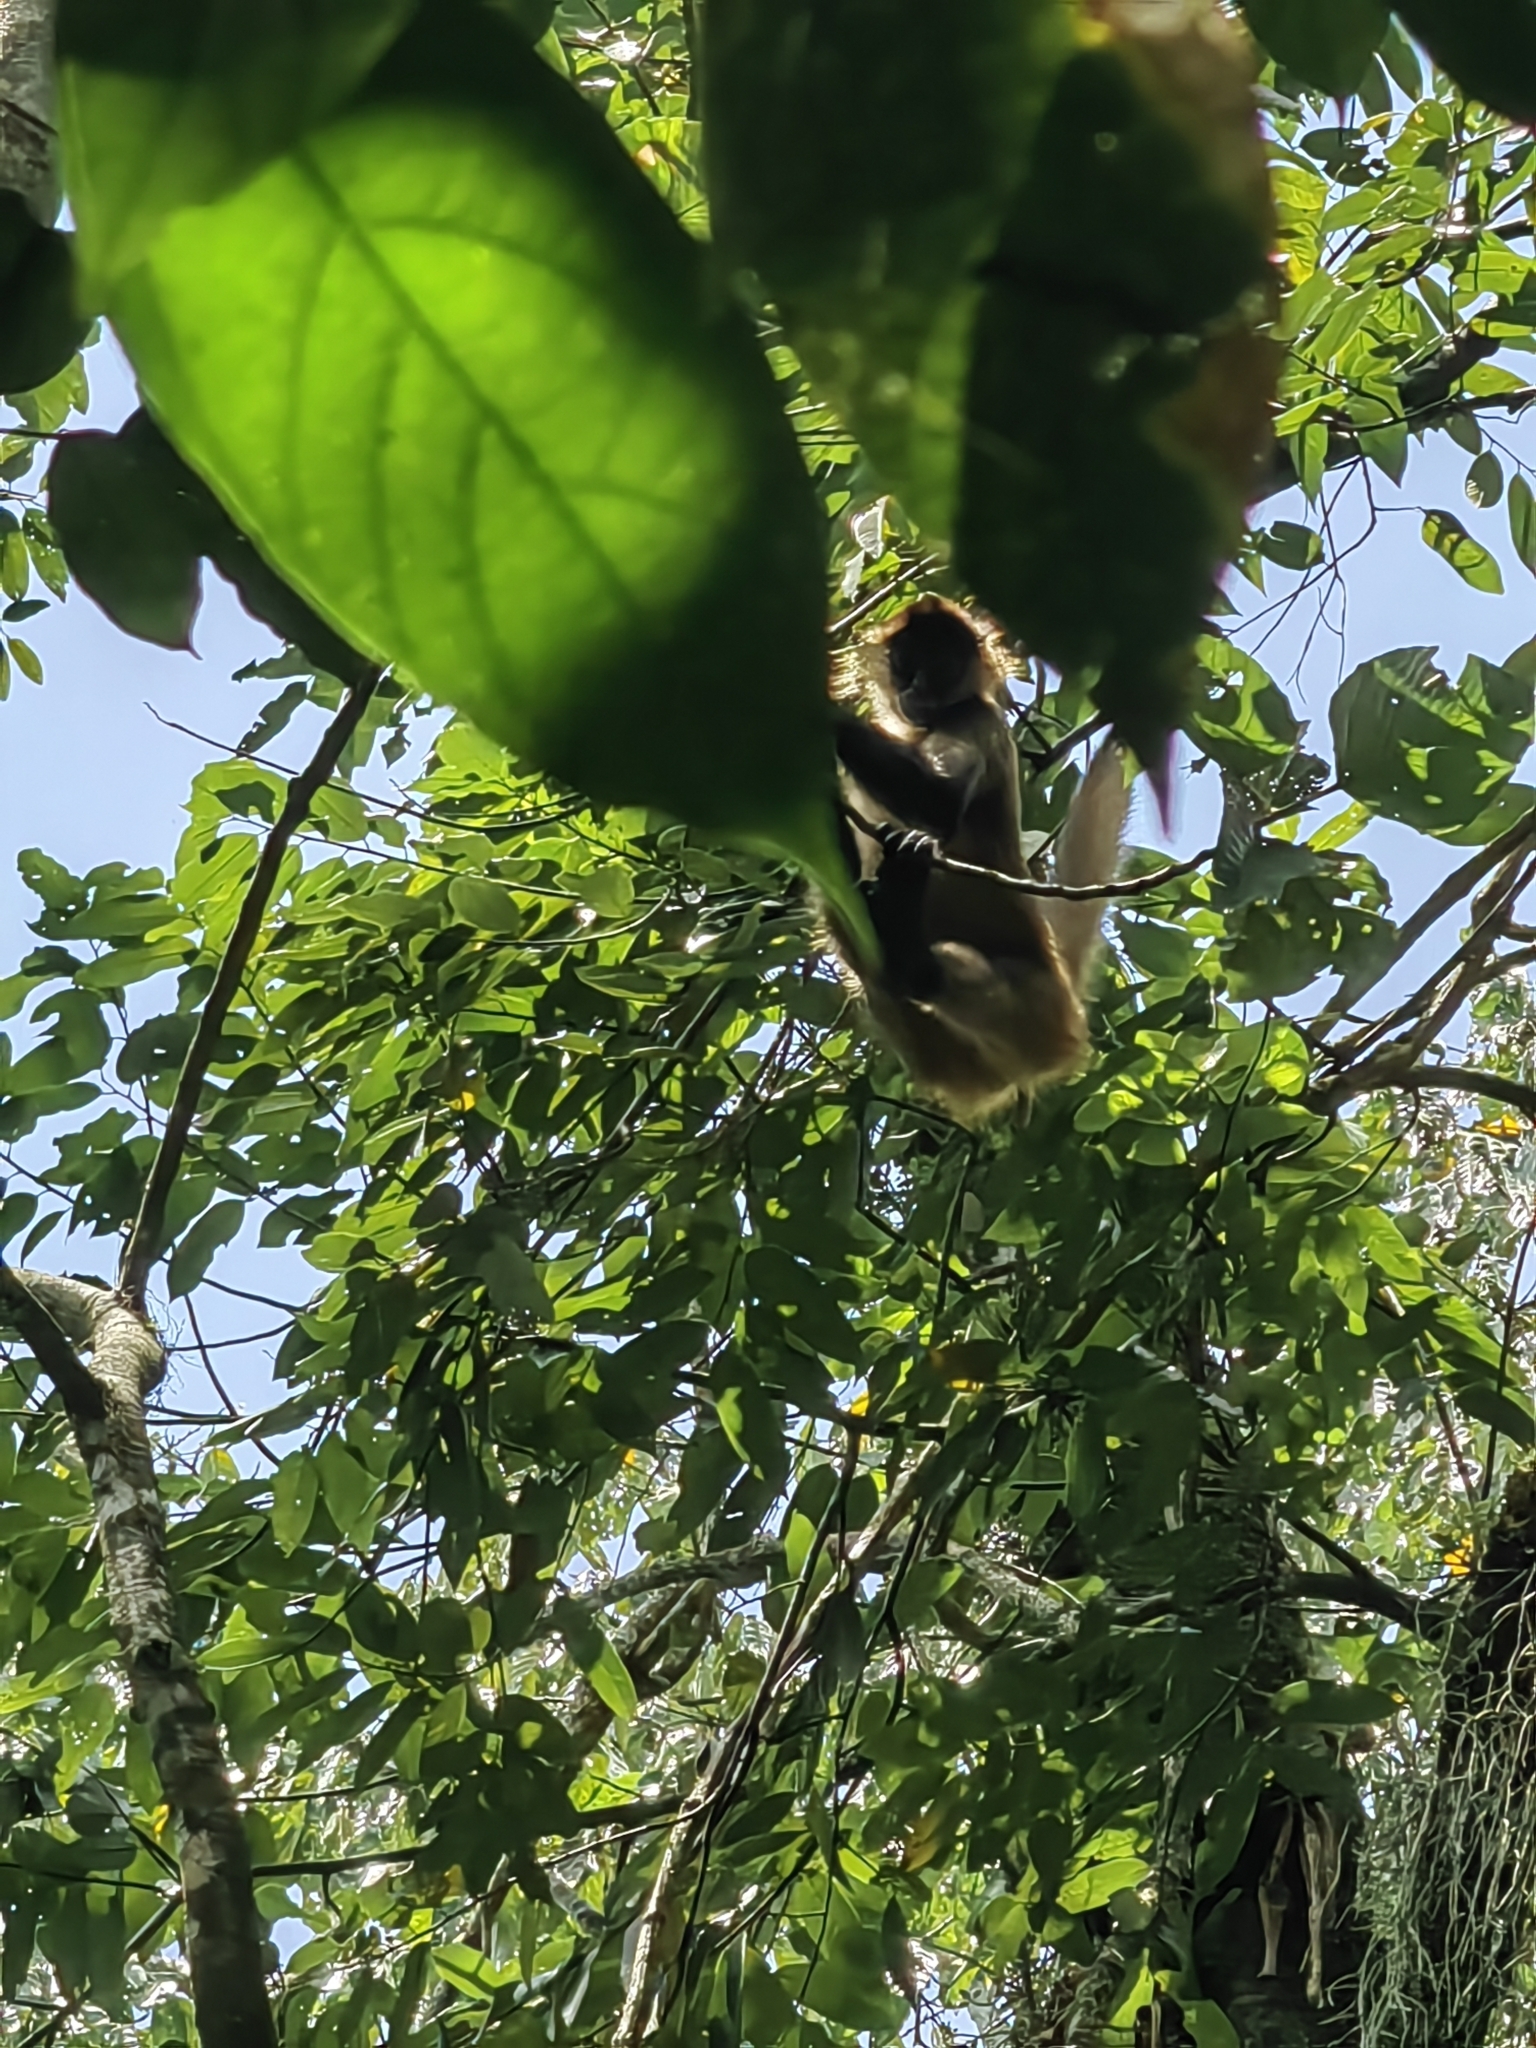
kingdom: Animalia
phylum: Chordata
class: Mammalia
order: Primates
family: Atelidae
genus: Ateles
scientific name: Ateles geoffroyi
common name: Black-handed spider monkey
